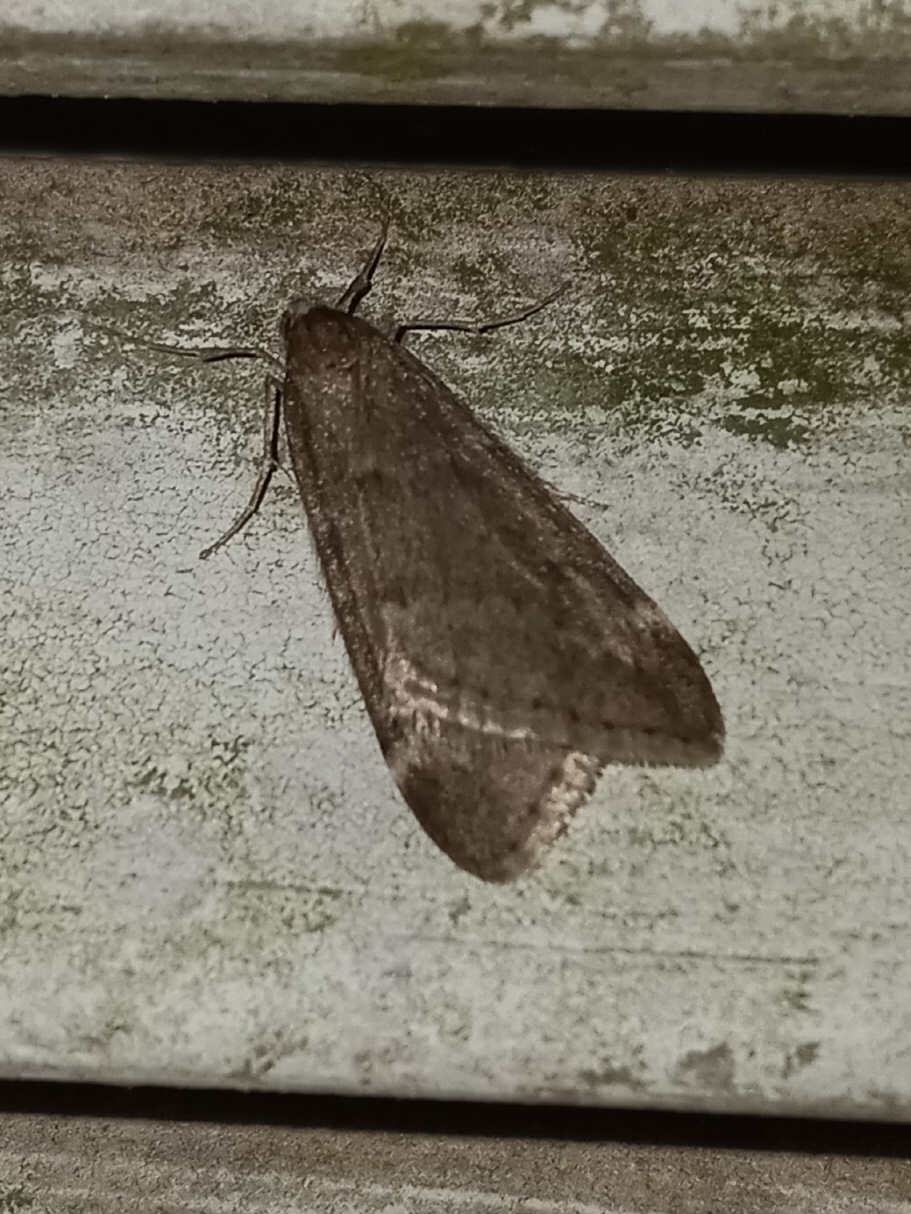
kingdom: Animalia
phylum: Arthropoda
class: Insecta
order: Lepidoptera
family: Geometridae
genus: Alsophila
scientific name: Alsophila pometaria
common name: Fall cankerworm
